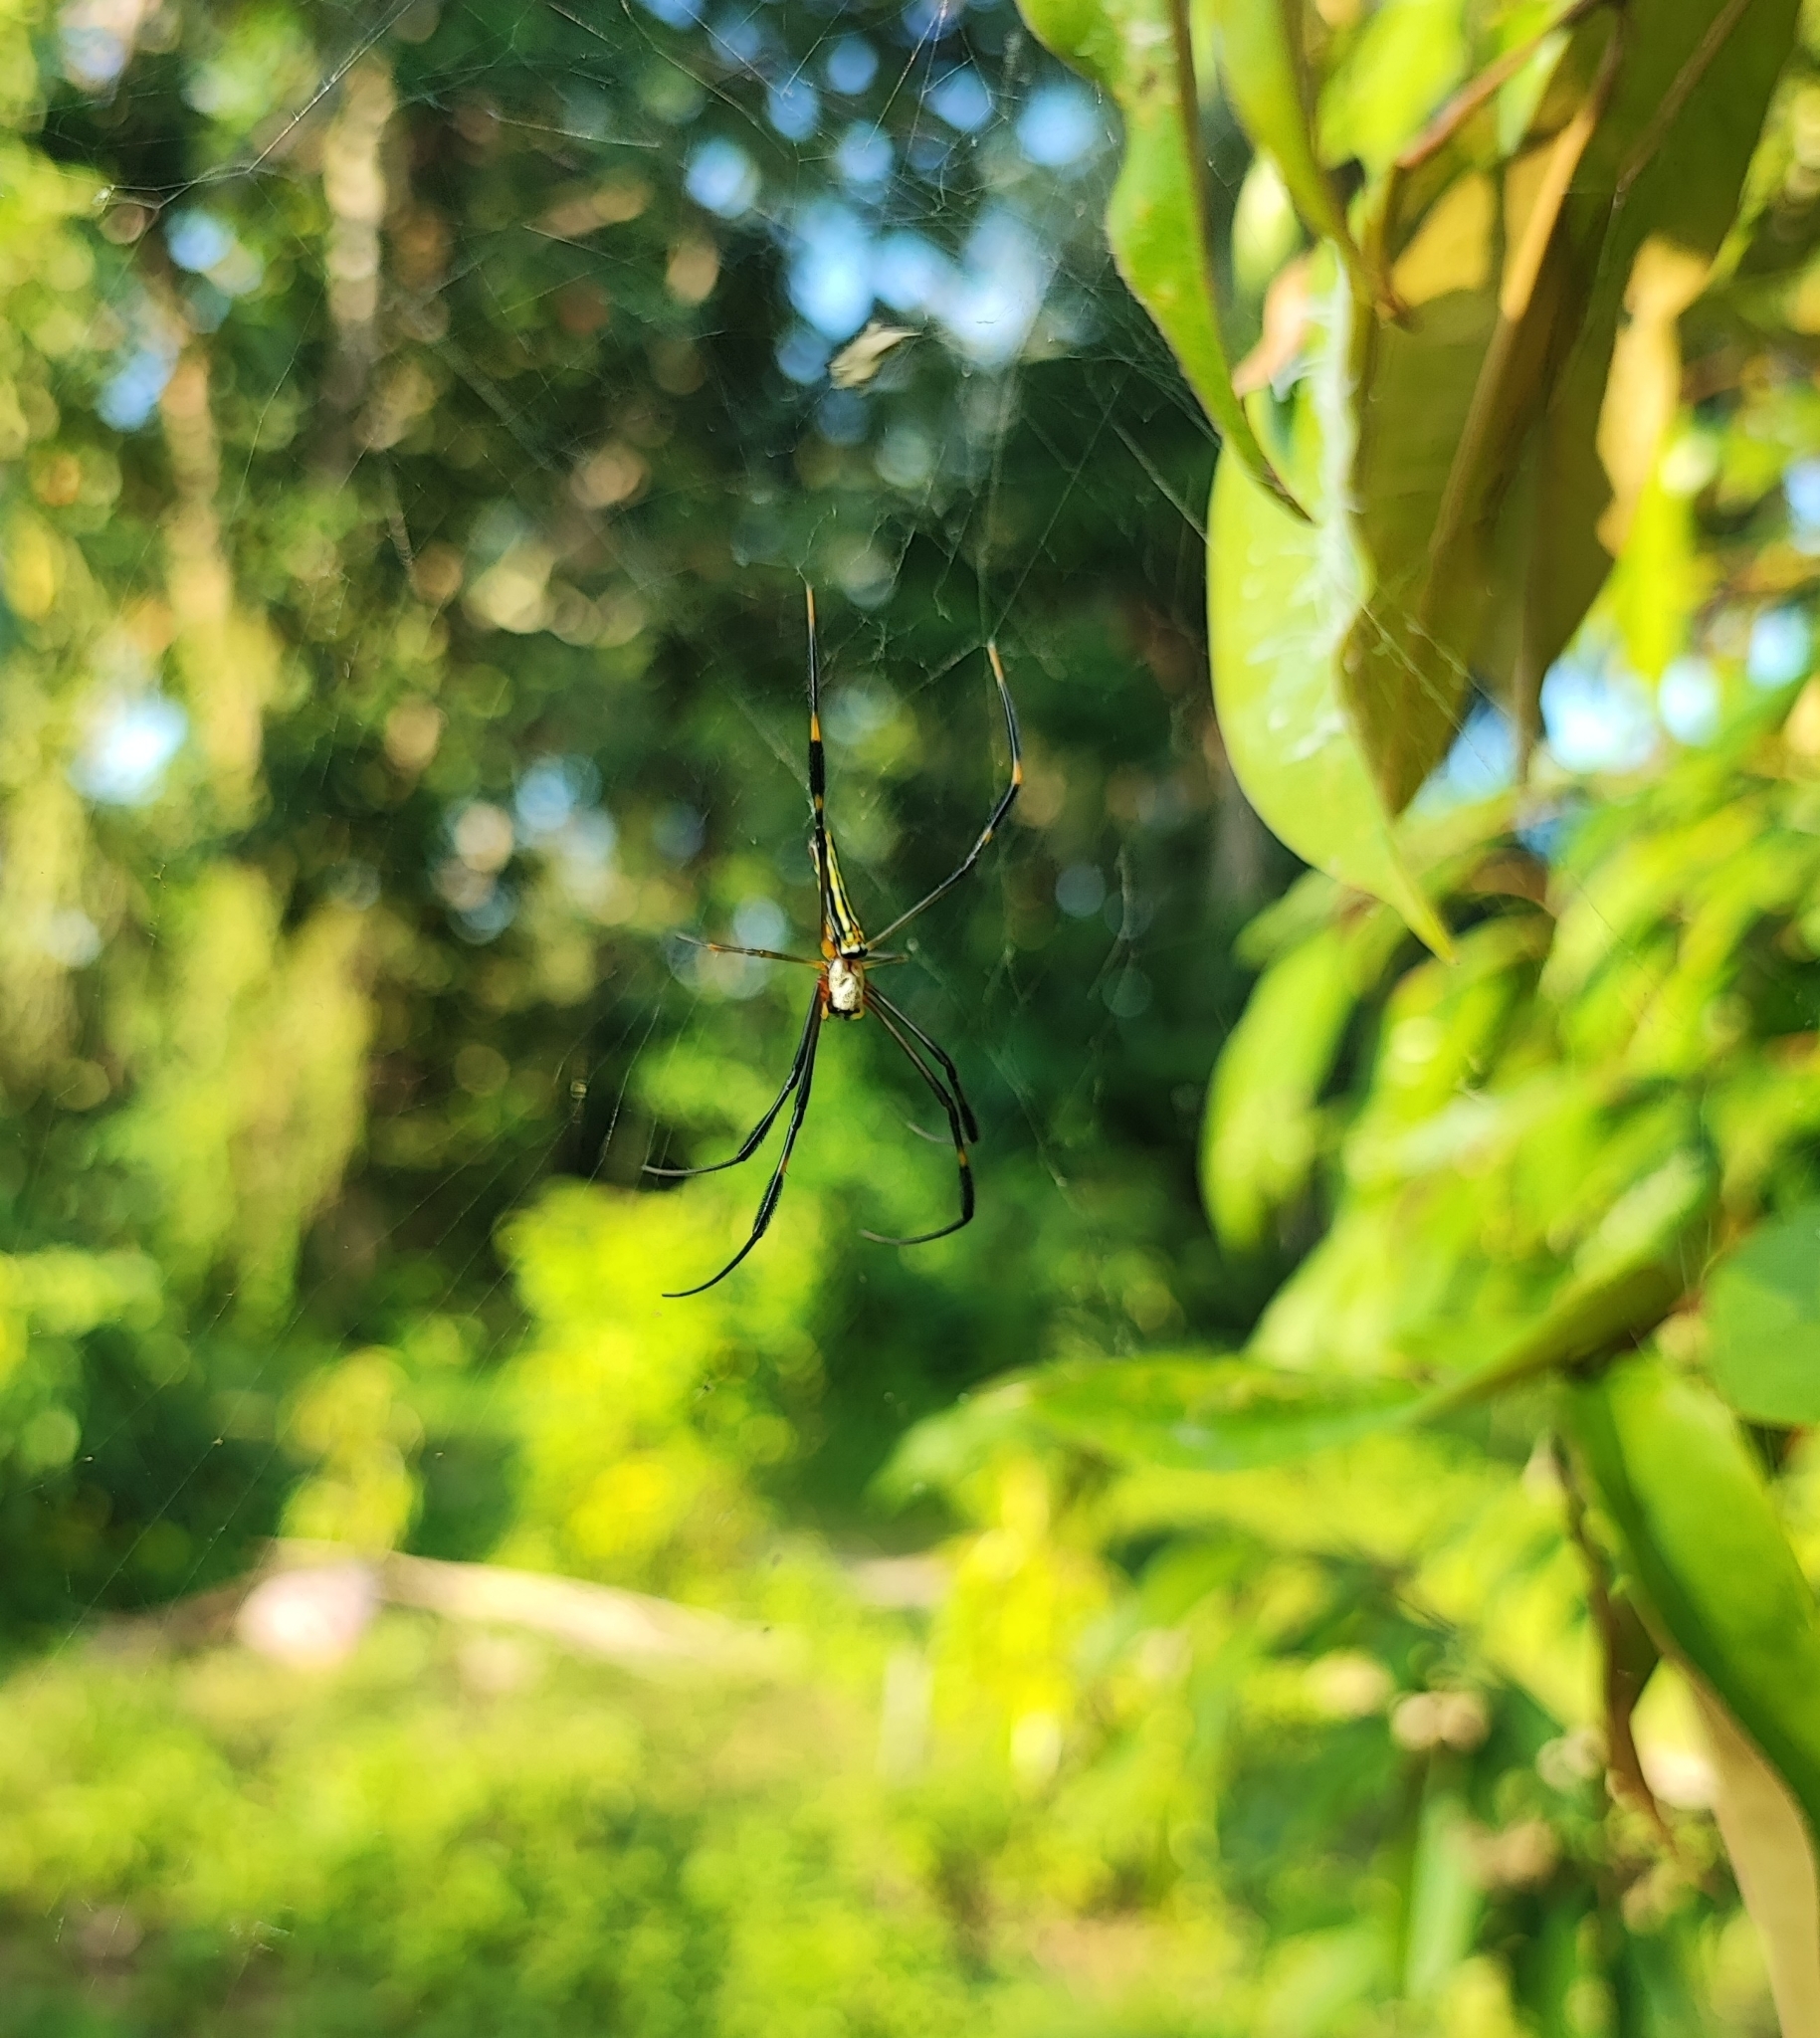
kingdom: Animalia
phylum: Arthropoda
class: Arachnida
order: Araneae
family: Araneidae
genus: Nephila
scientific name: Nephila pilipes
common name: Giant golden orb weaver
